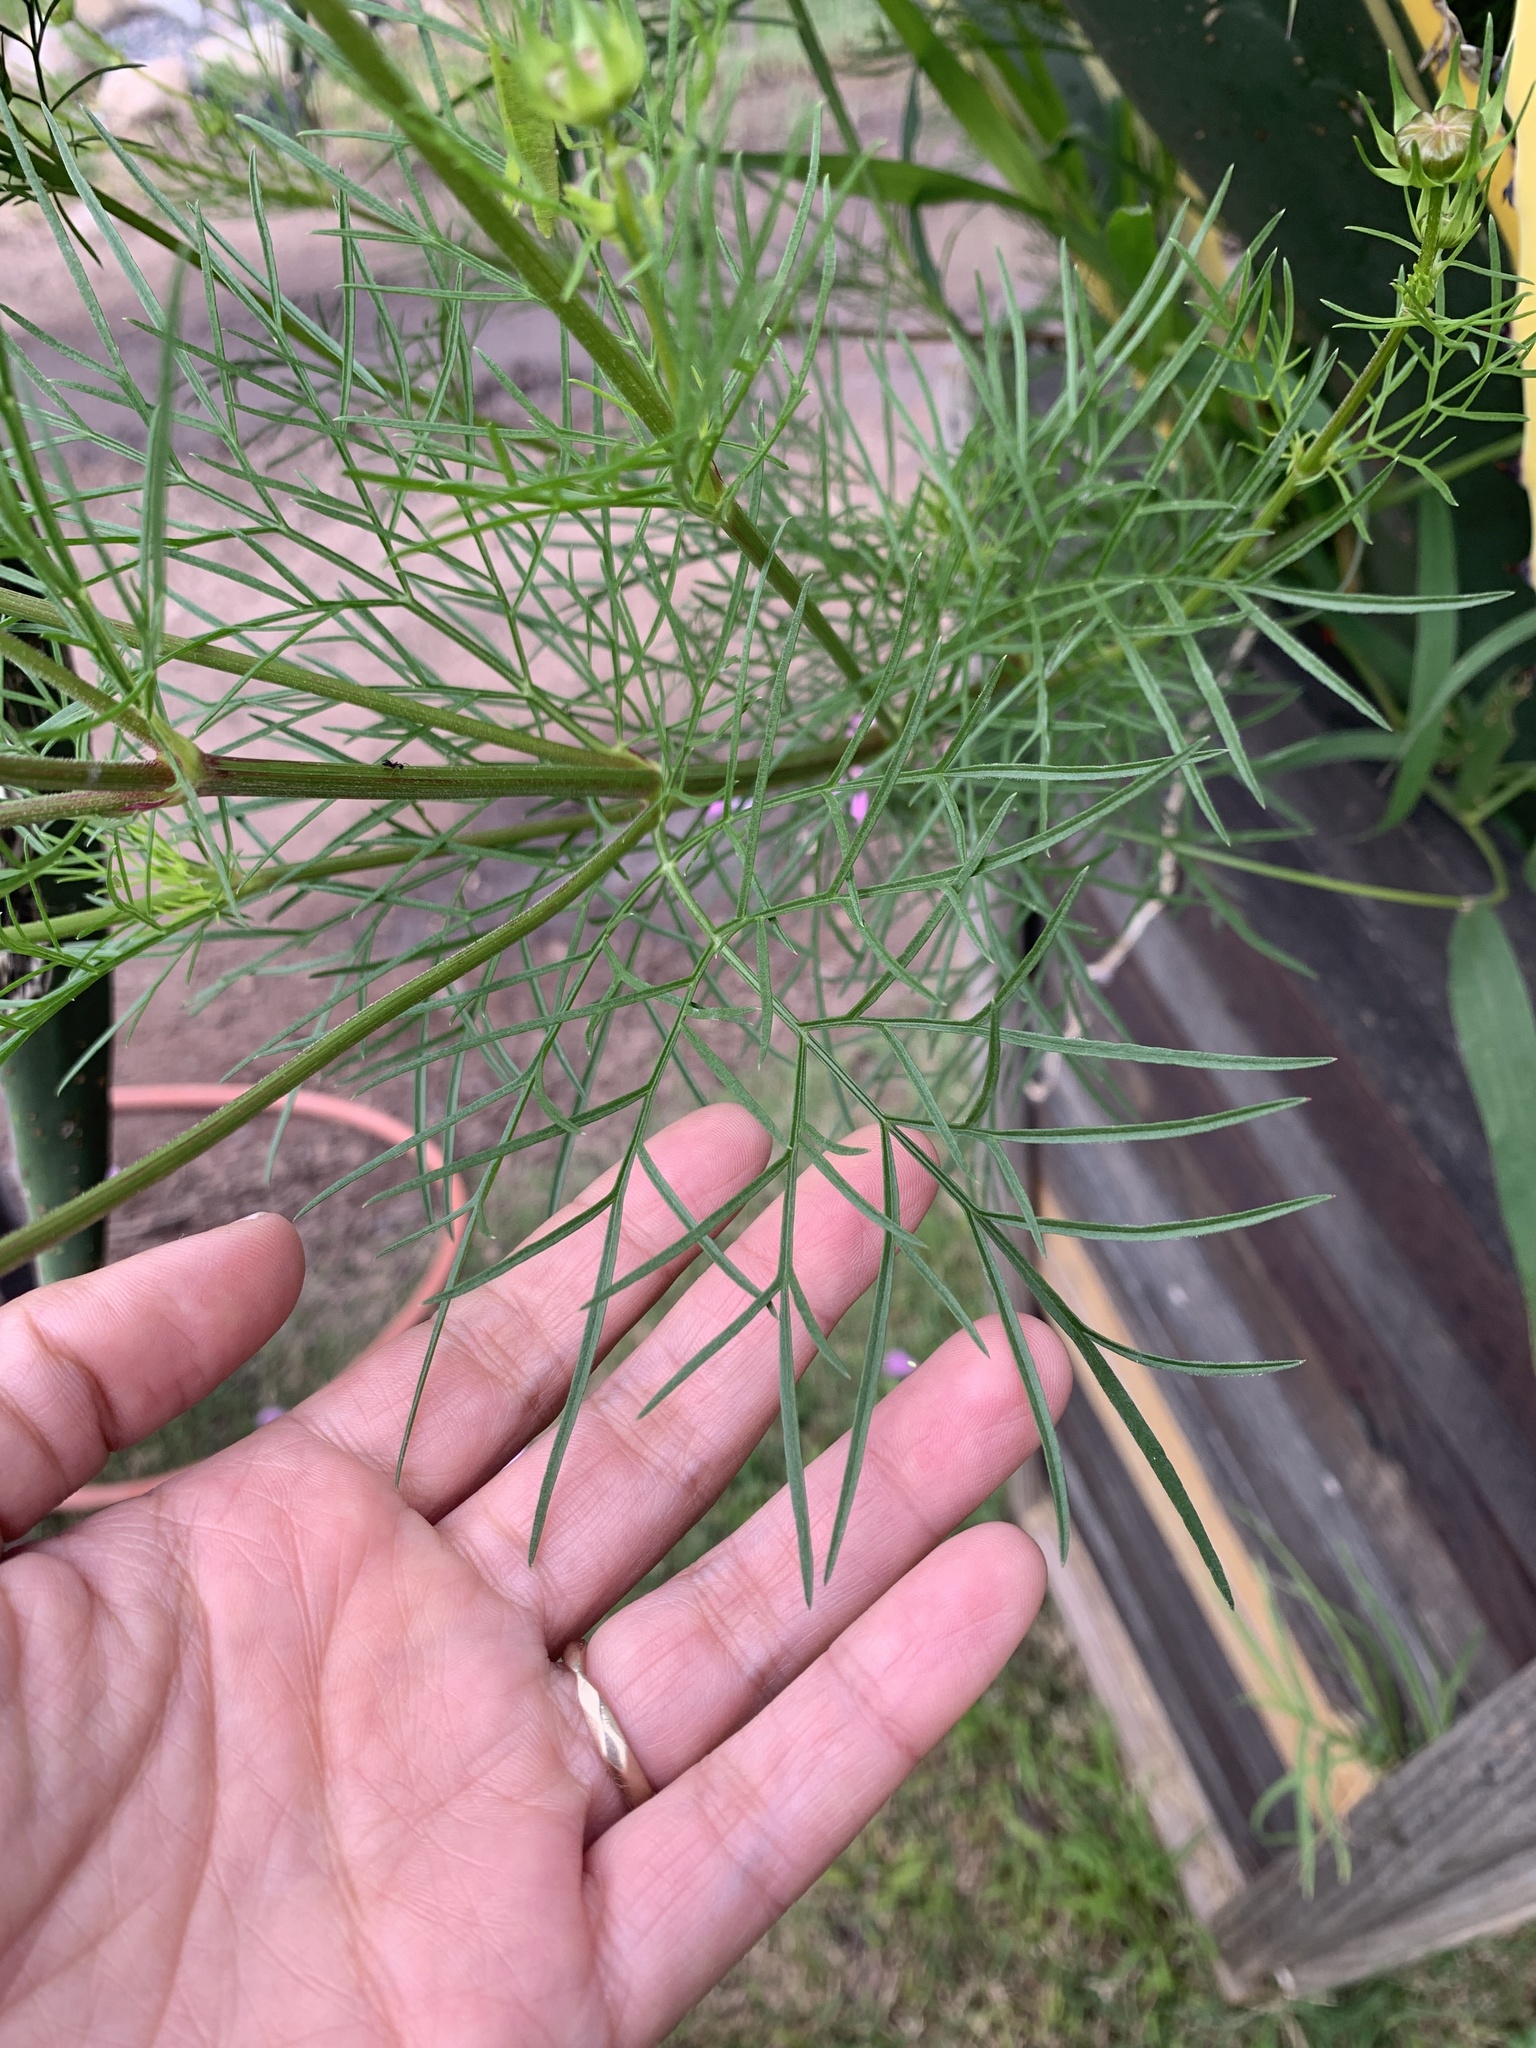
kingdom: Plantae
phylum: Tracheophyta
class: Magnoliopsida
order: Asterales
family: Asteraceae
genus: Cosmos
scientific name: Cosmos bipinnatus
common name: Garden cosmos
